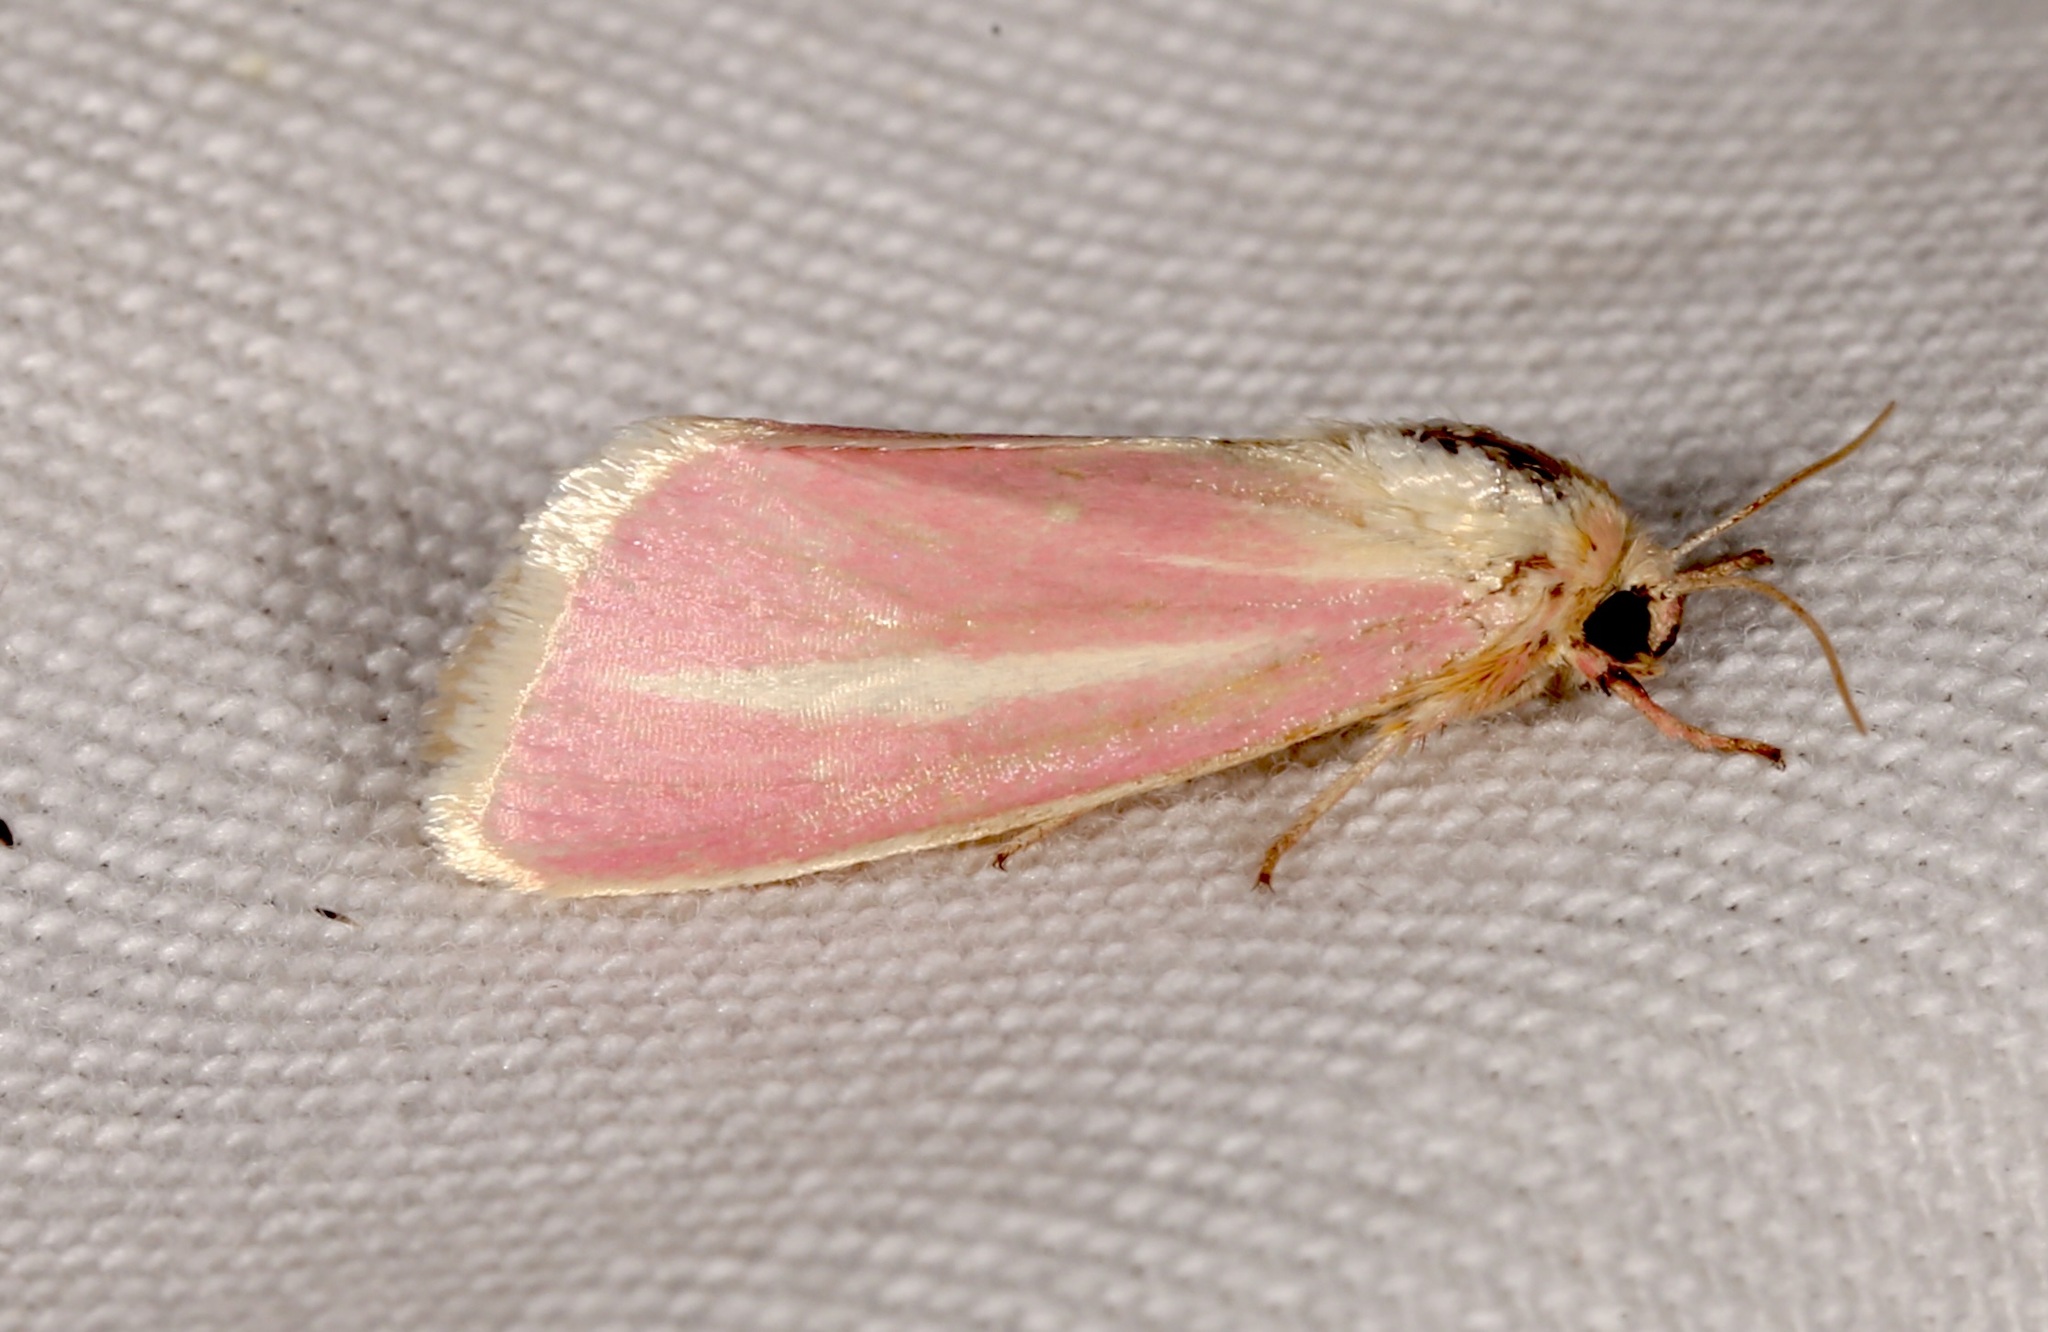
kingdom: Animalia
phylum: Arthropoda
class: Insecta
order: Lepidoptera
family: Noctuidae
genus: Heliocheilus
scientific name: Heliocheilus julia
